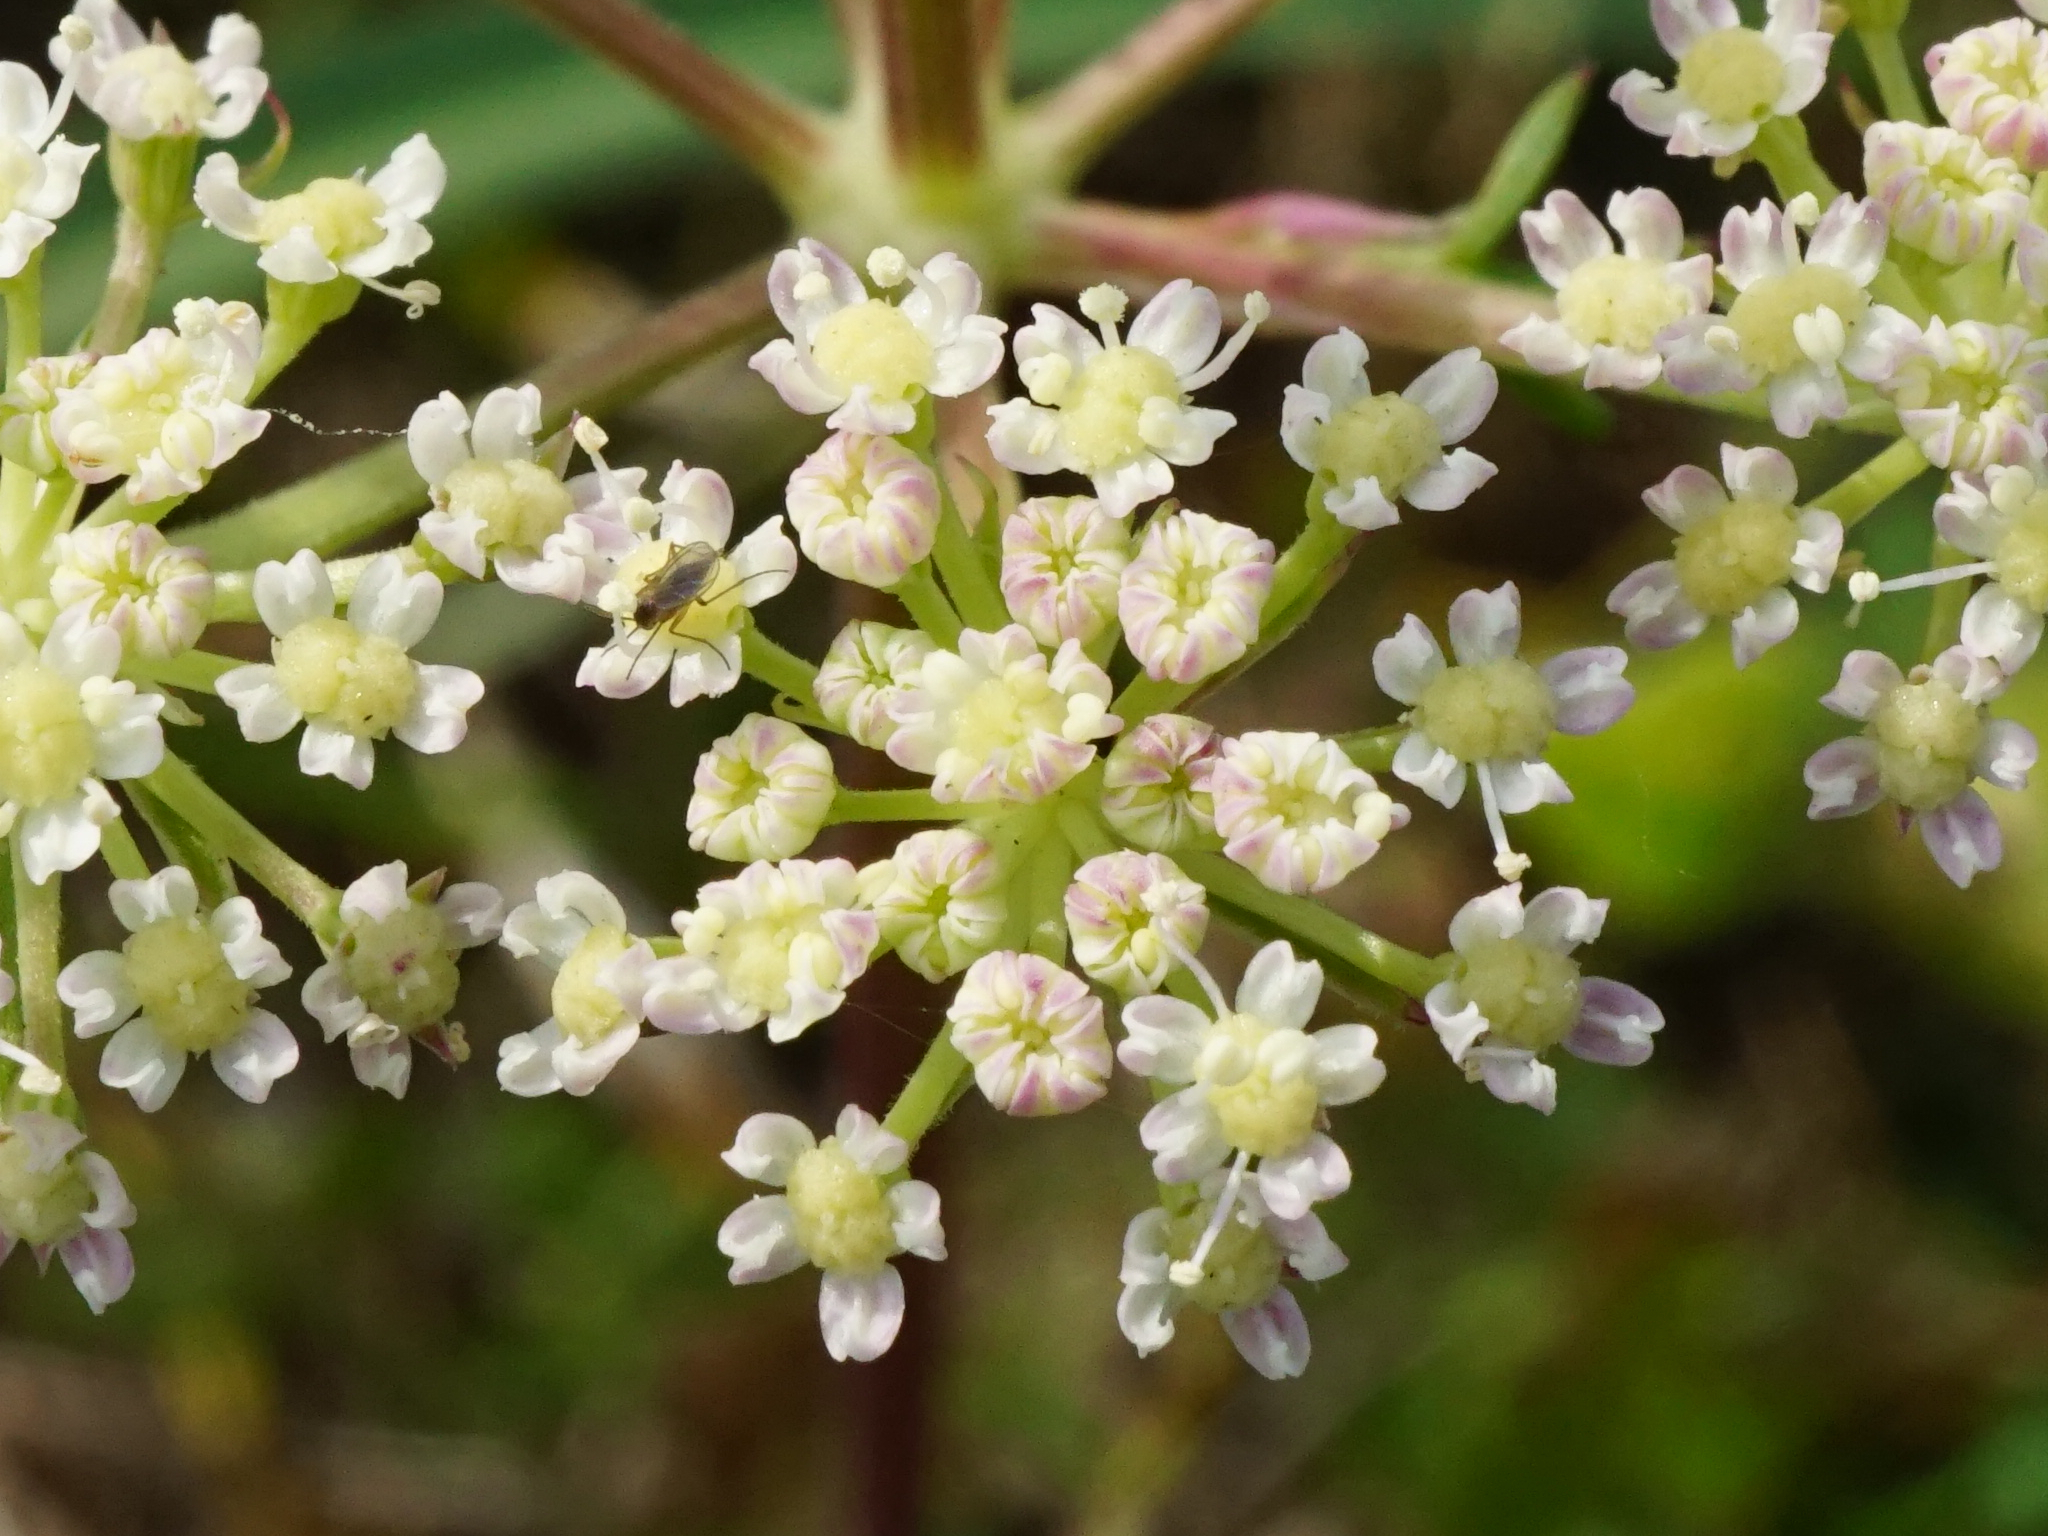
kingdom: Plantae
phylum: Tracheophyta
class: Magnoliopsida
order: Apiales
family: Apiaceae
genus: Seseli
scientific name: Seseli annuum
